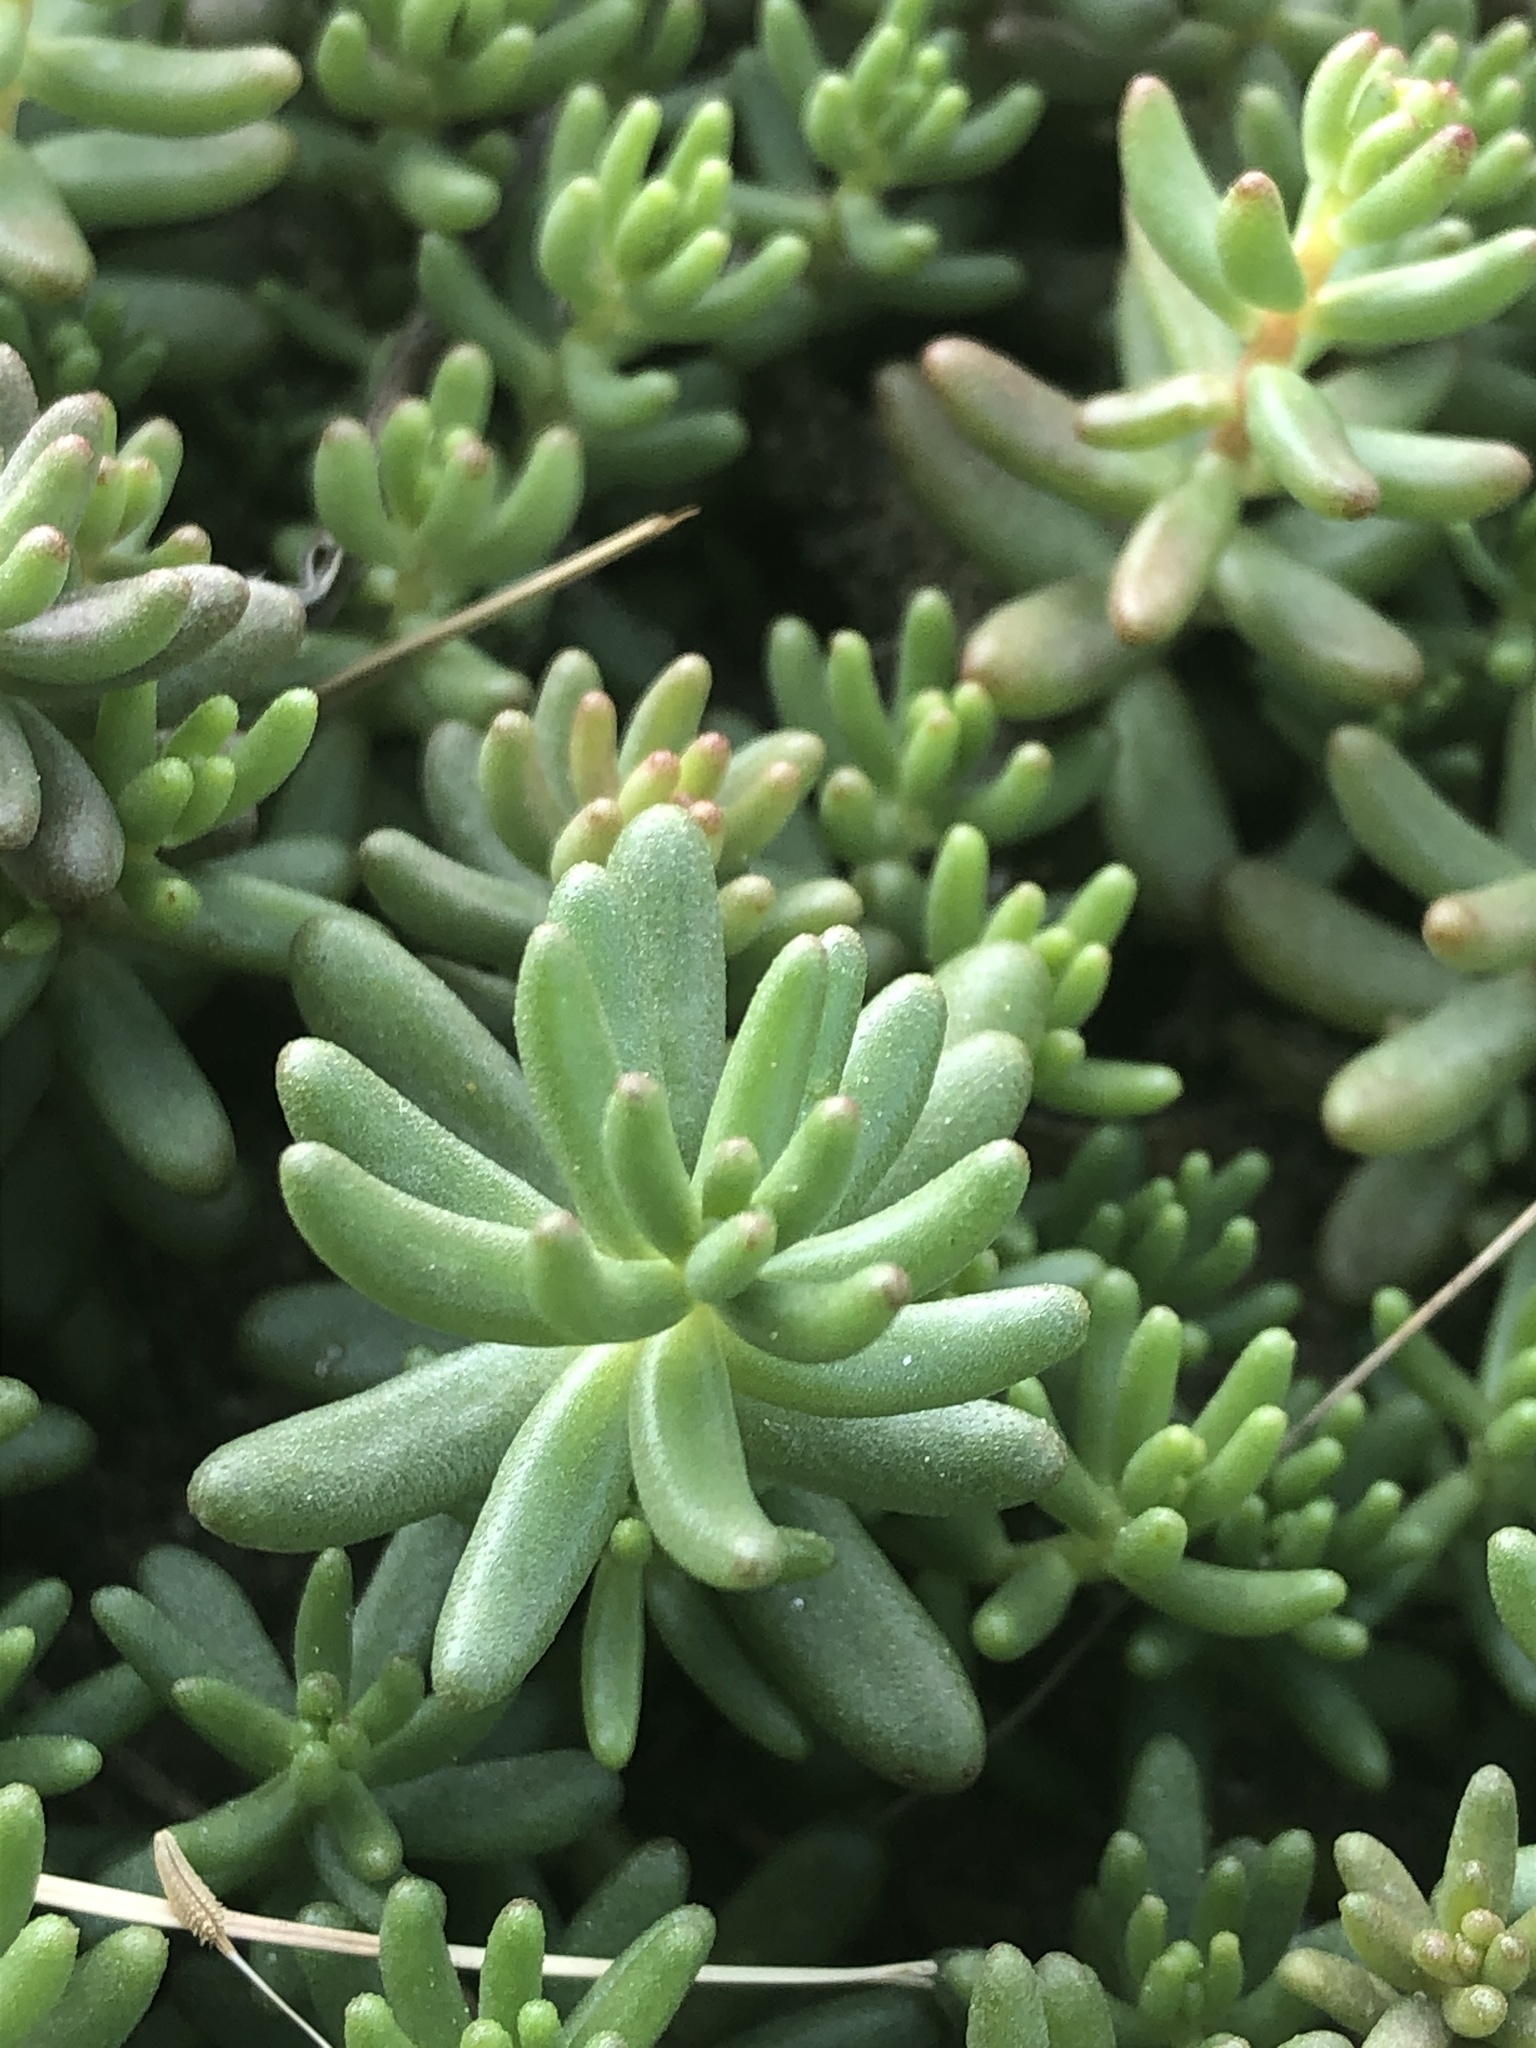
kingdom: Plantae
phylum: Tracheophyta
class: Magnoliopsida
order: Saxifragales
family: Crassulaceae
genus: Sedum
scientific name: Sedum album
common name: White stonecrop
